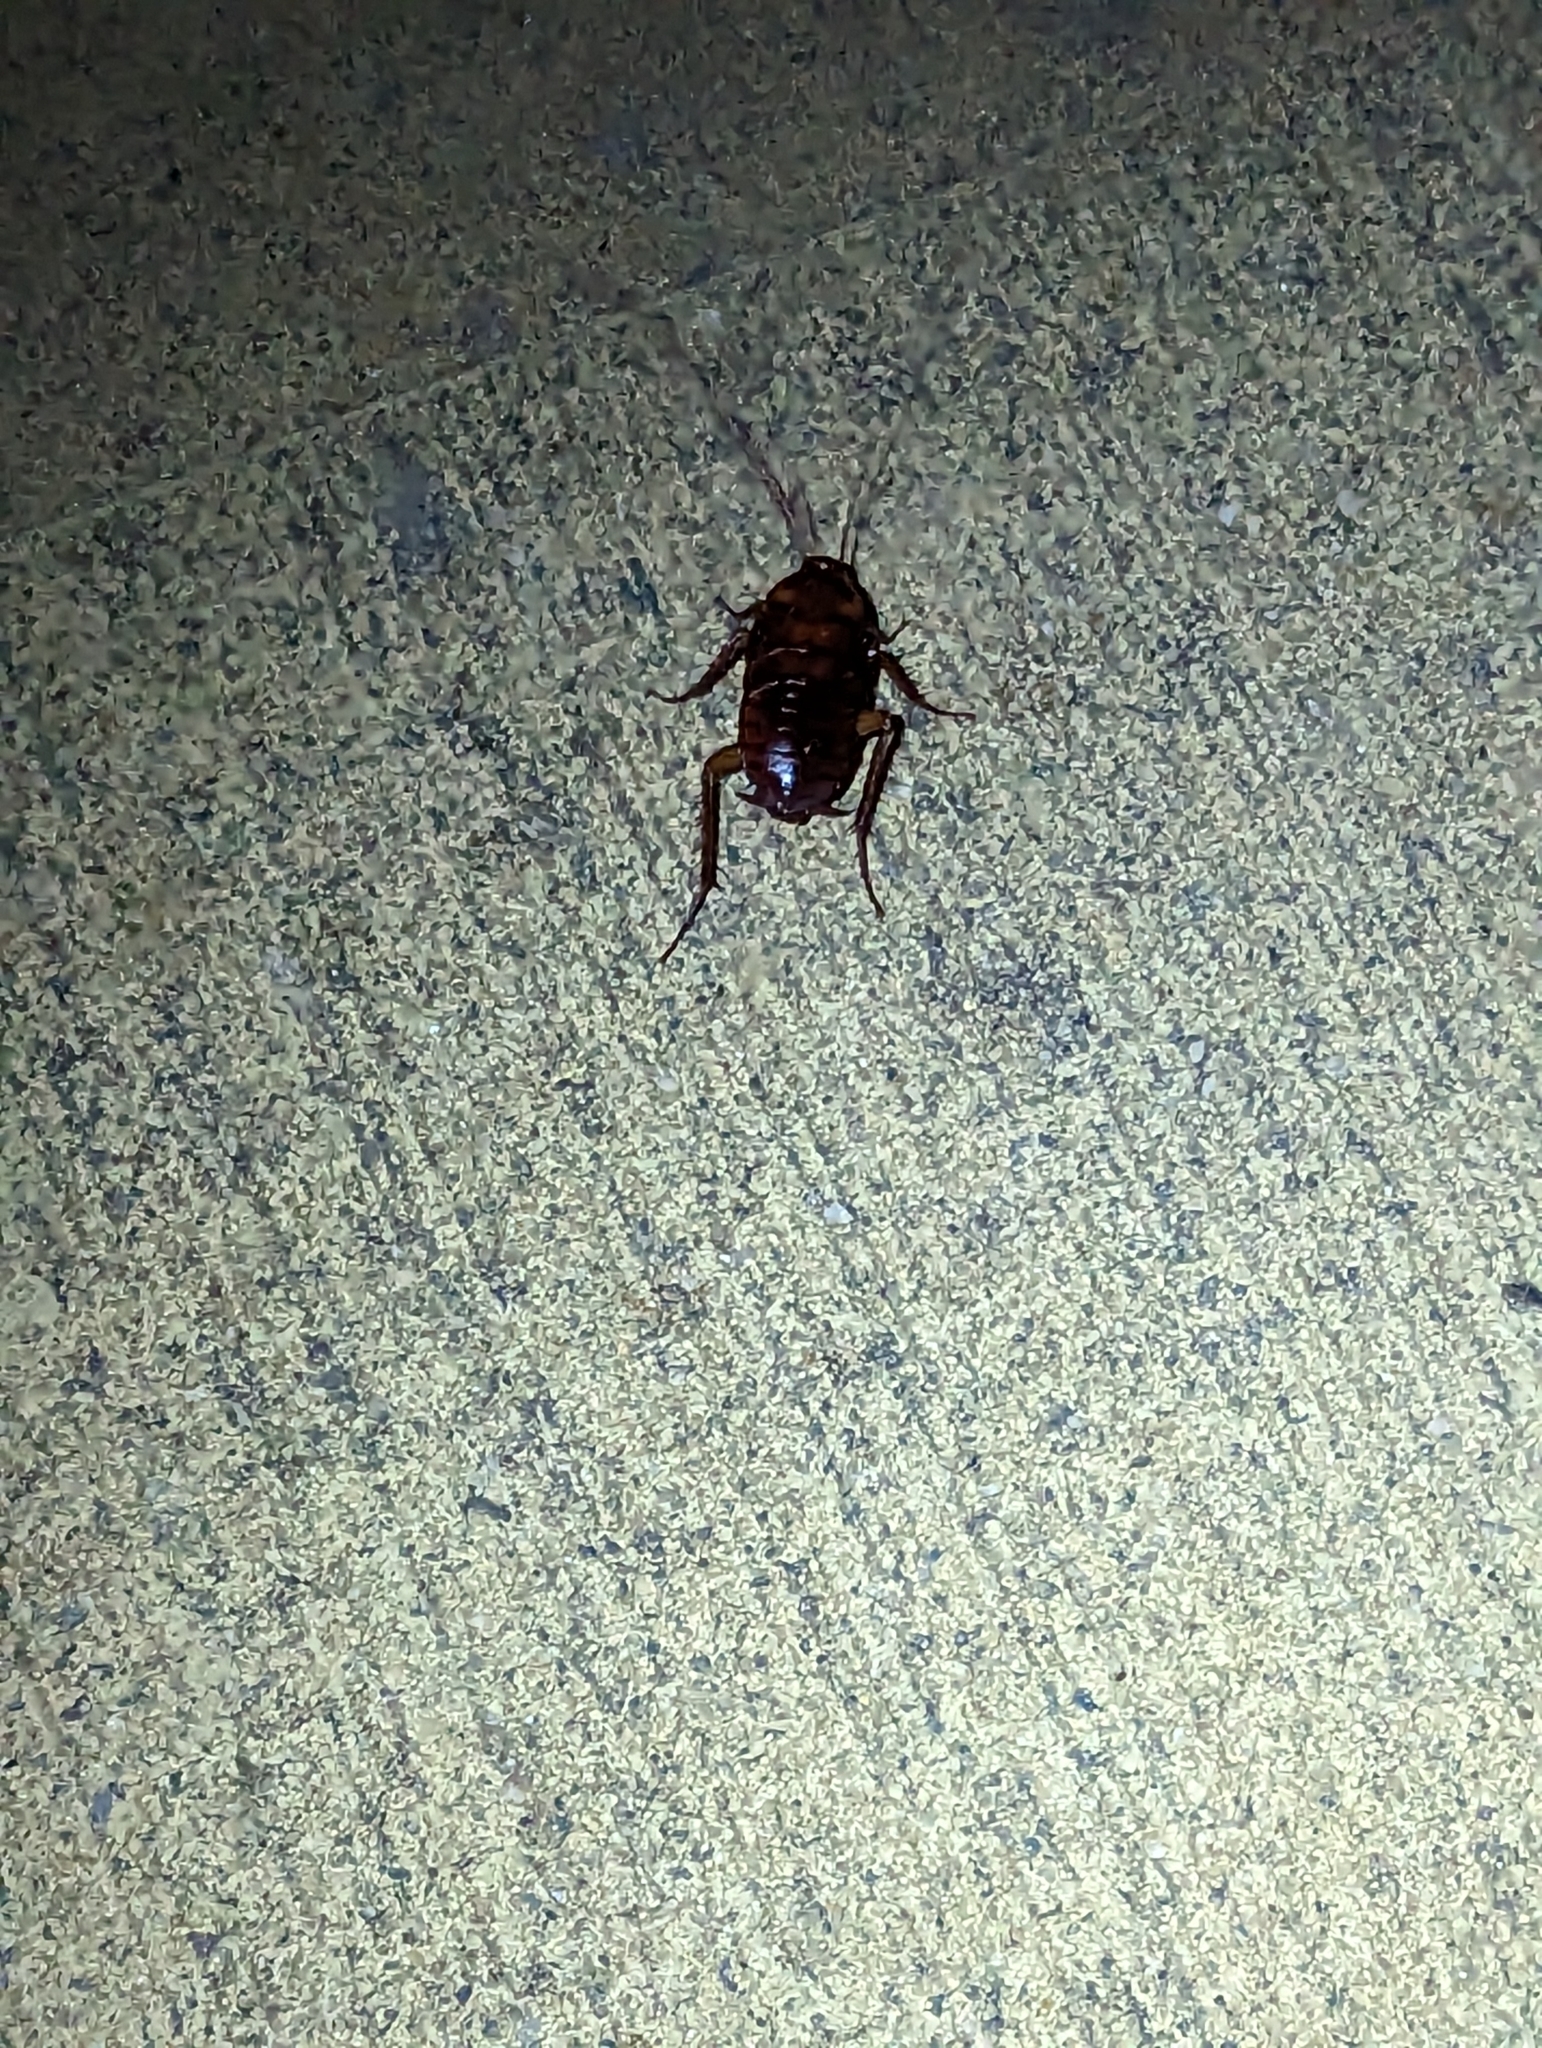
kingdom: Animalia
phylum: Arthropoda
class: Insecta
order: Blattodea
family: Blattidae
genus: Periplaneta
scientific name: Periplaneta americana
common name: American cockroach
